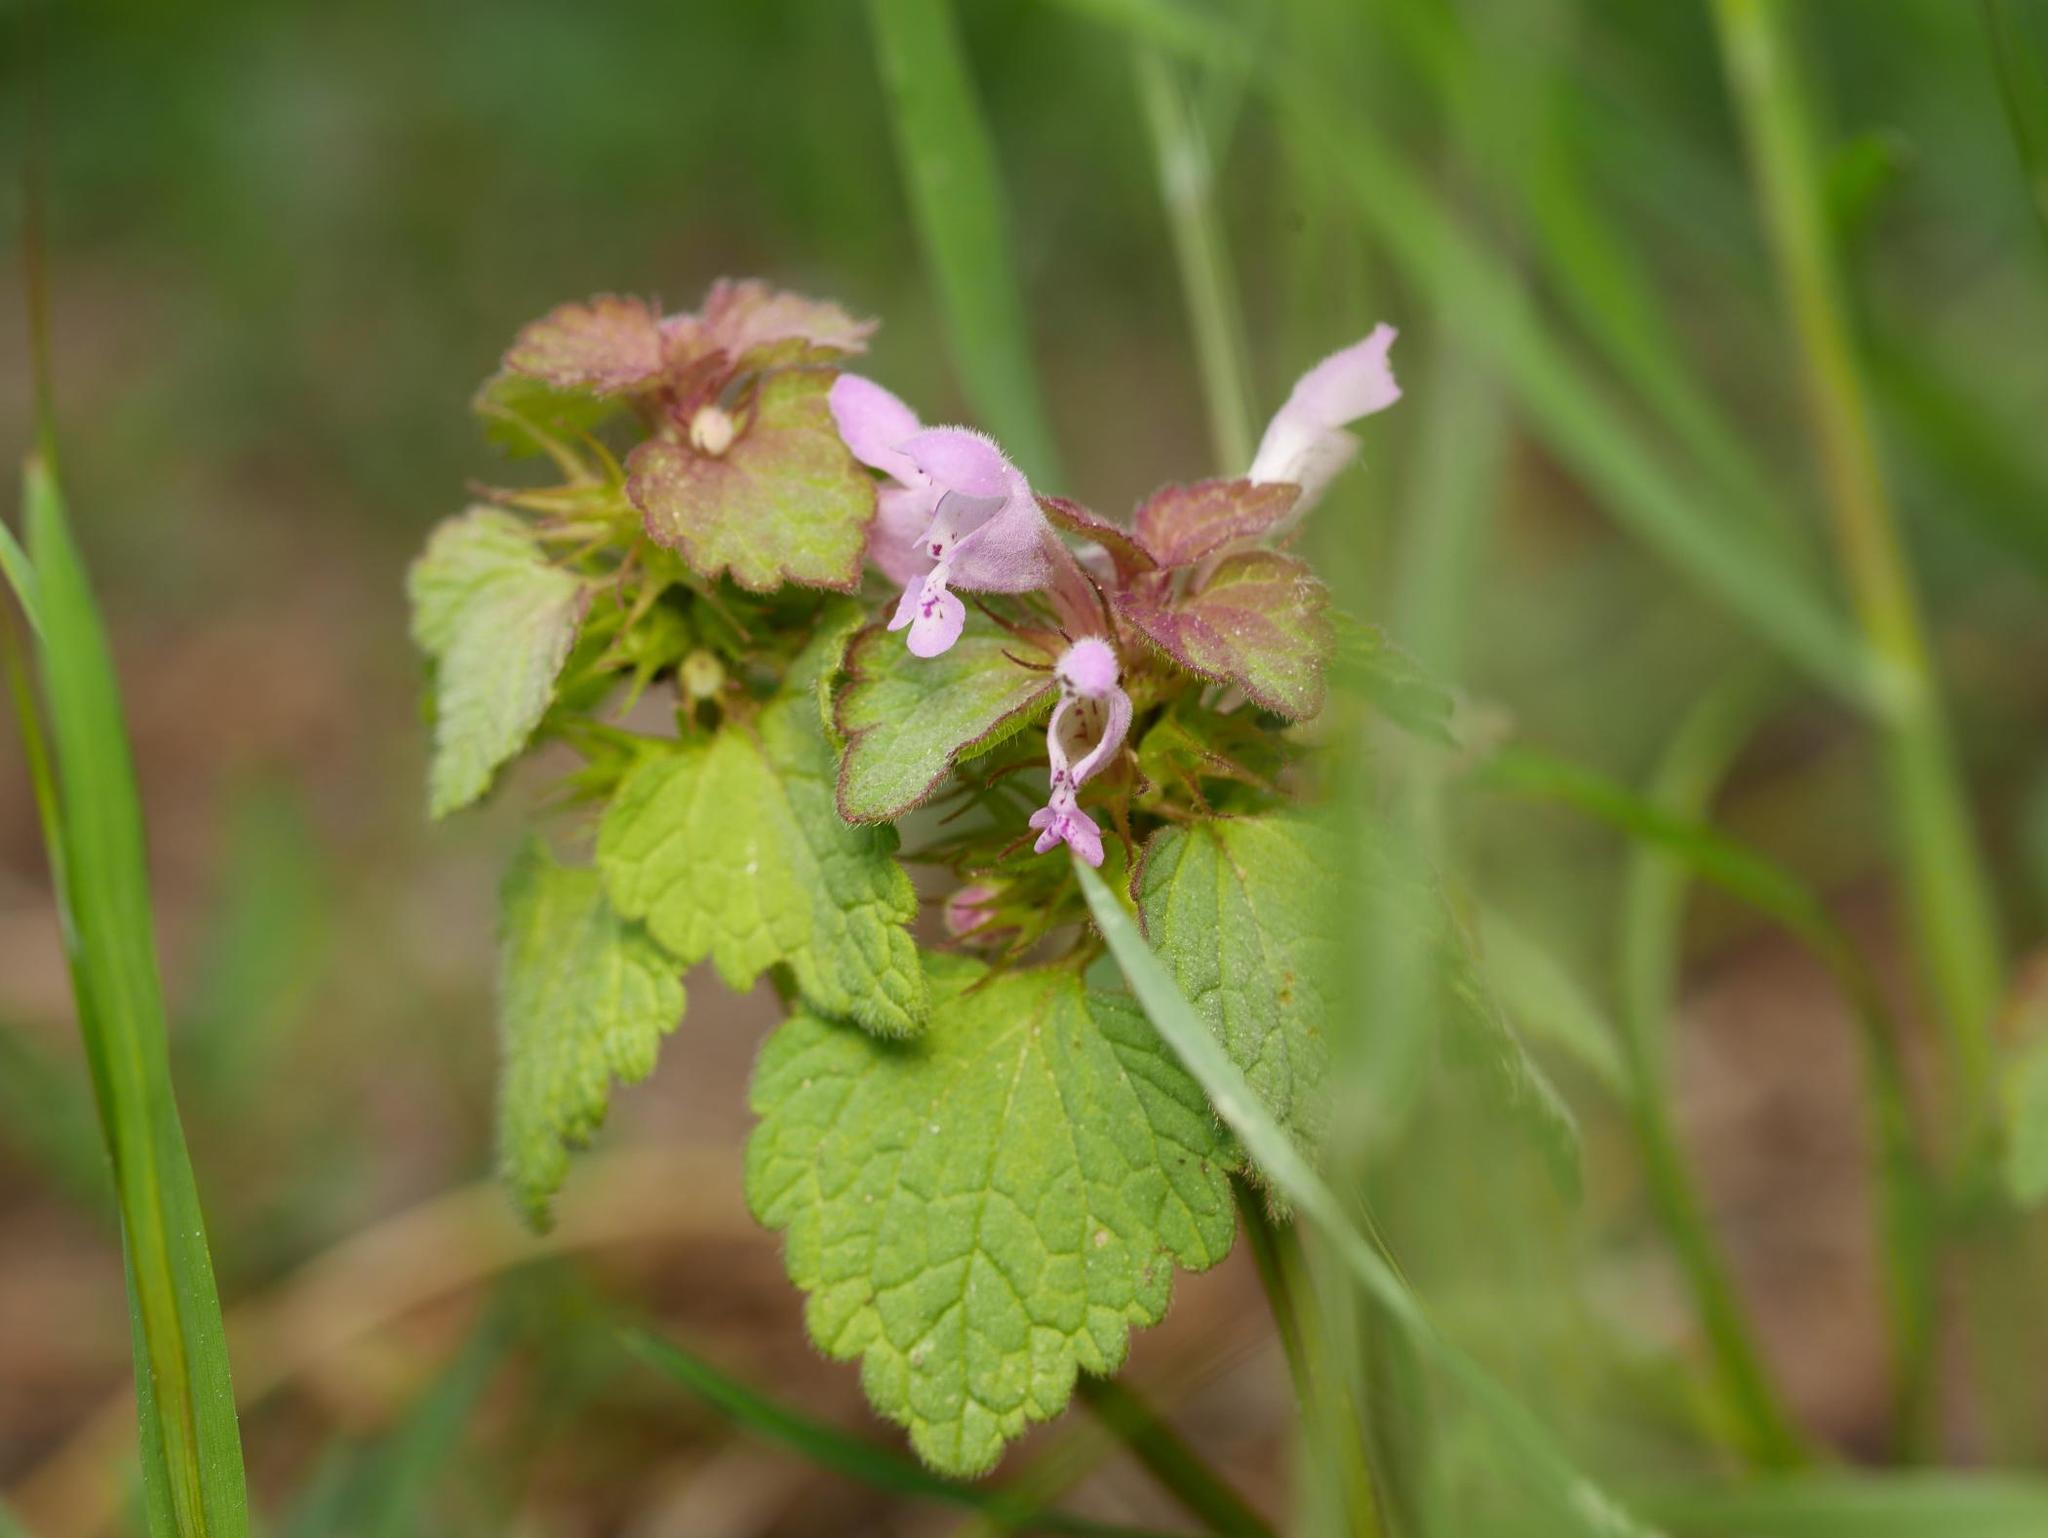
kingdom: Plantae
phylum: Tracheophyta
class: Magnoliopsida
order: Lamiales
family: Lamiaceae
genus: Lamium
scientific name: Lamium purpureum
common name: Red dead-nettle
